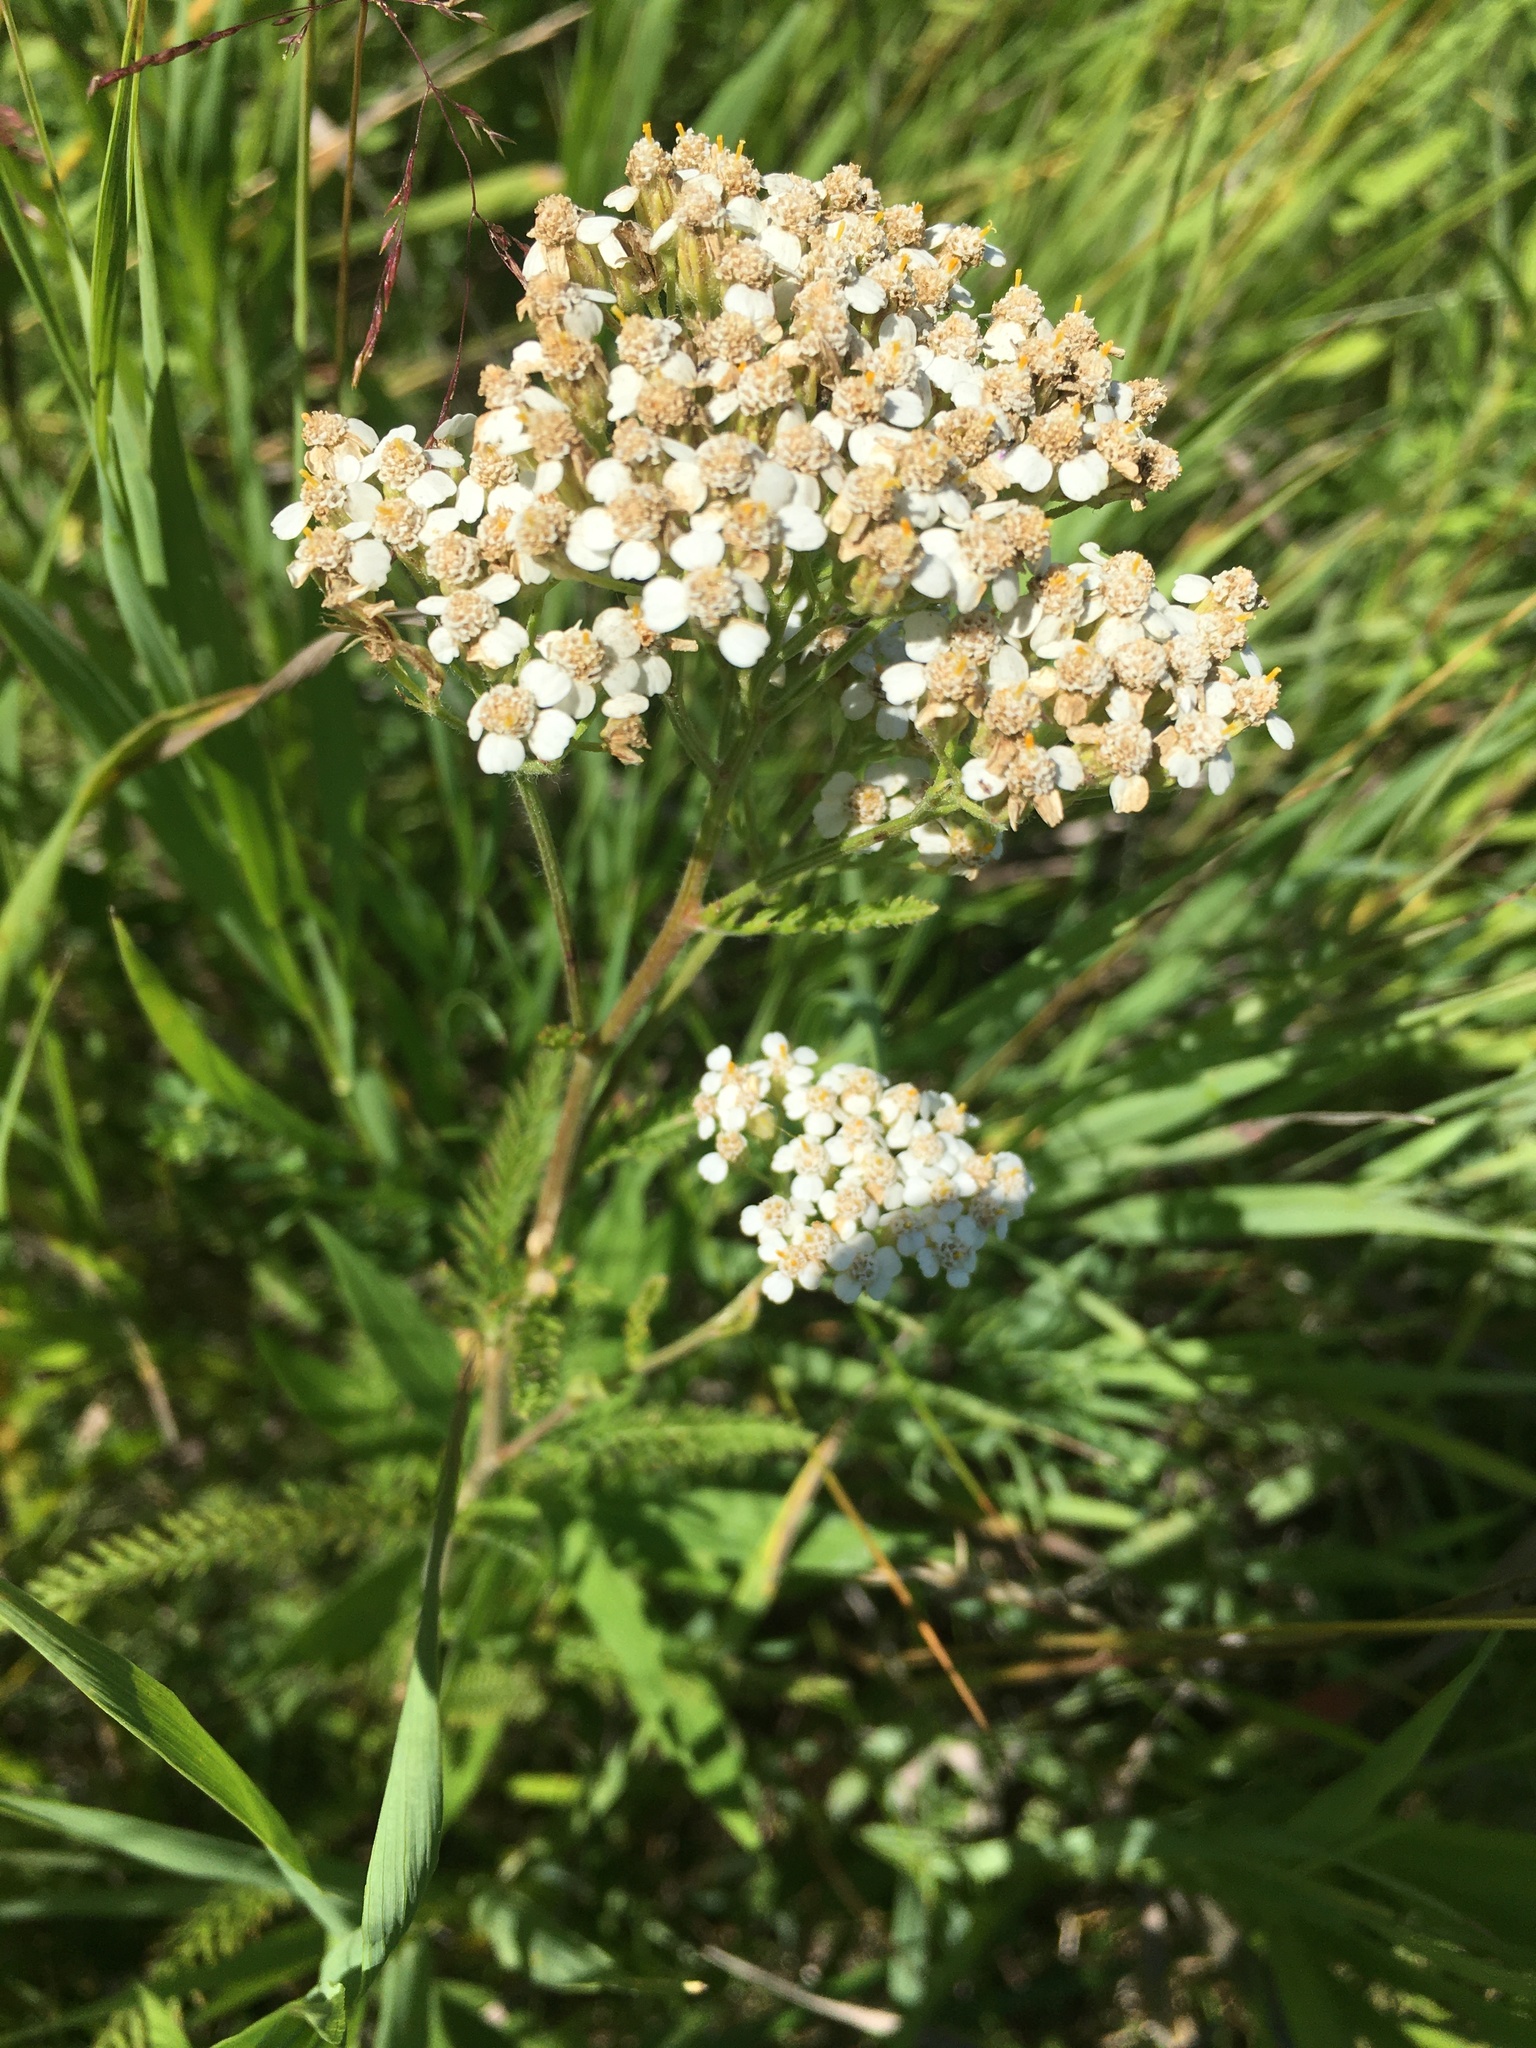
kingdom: Plantae
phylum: Tracheophyta
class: Magnoliopsida
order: Asterales
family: Asteraceae
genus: Achillea
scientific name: Achillea millefolium
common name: Yarrow
